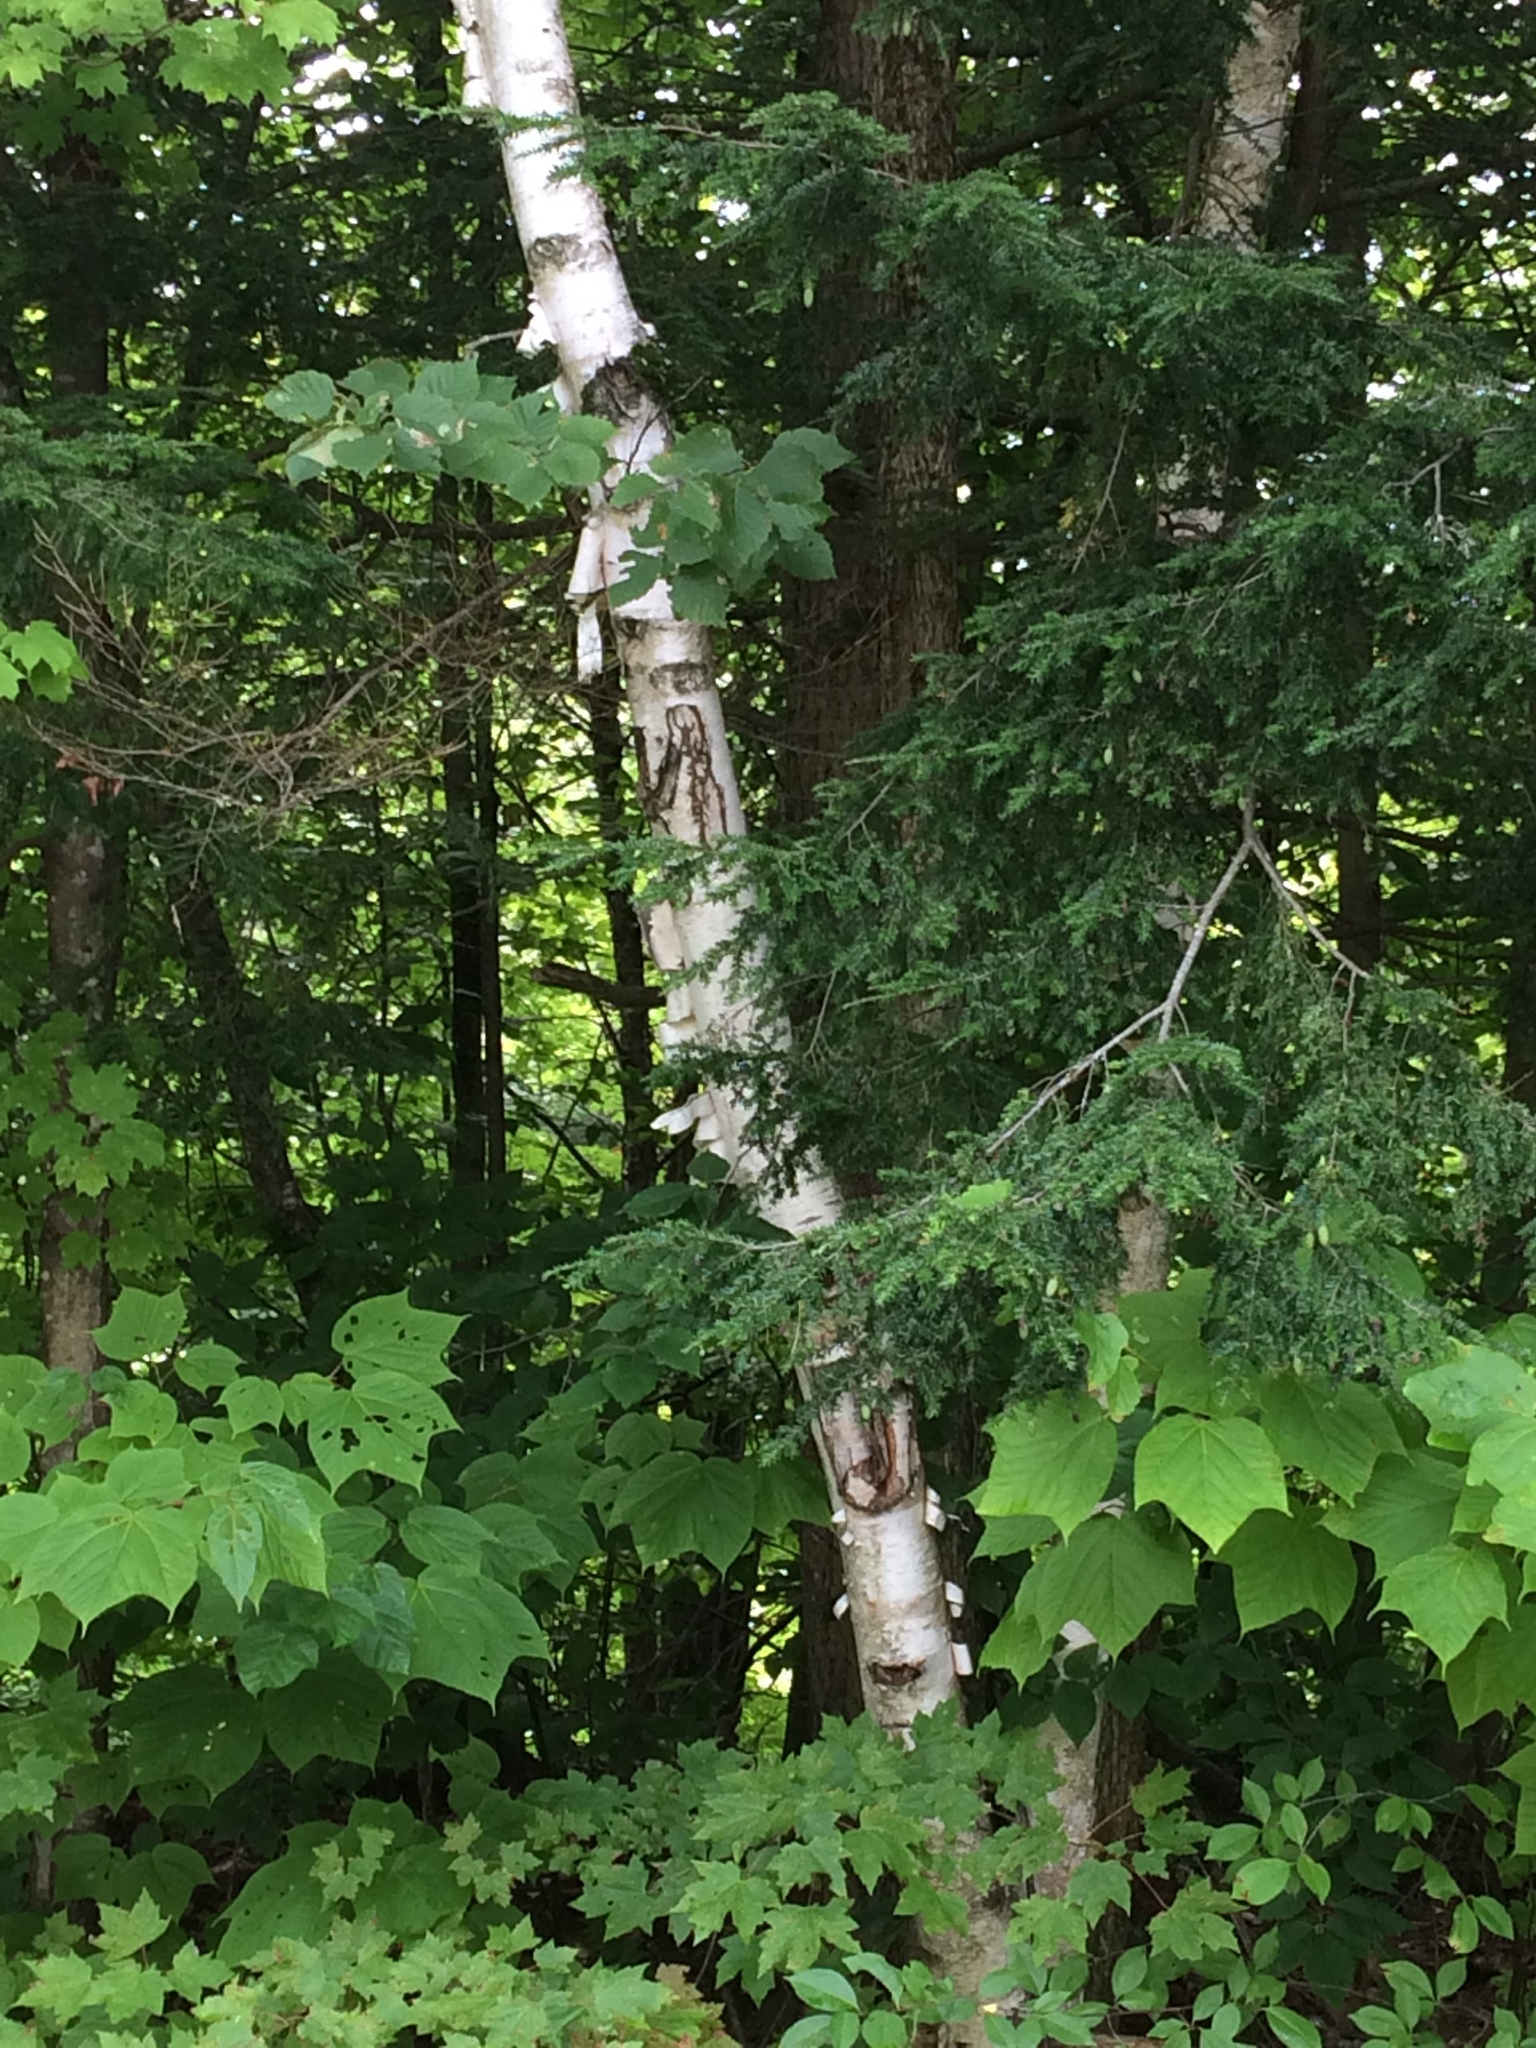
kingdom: Plantae
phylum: Tracheophyta
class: Magnoliopsida
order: Fagales
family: Betulaceae
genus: Betula
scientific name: Betula papyrifera
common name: Paper birch
